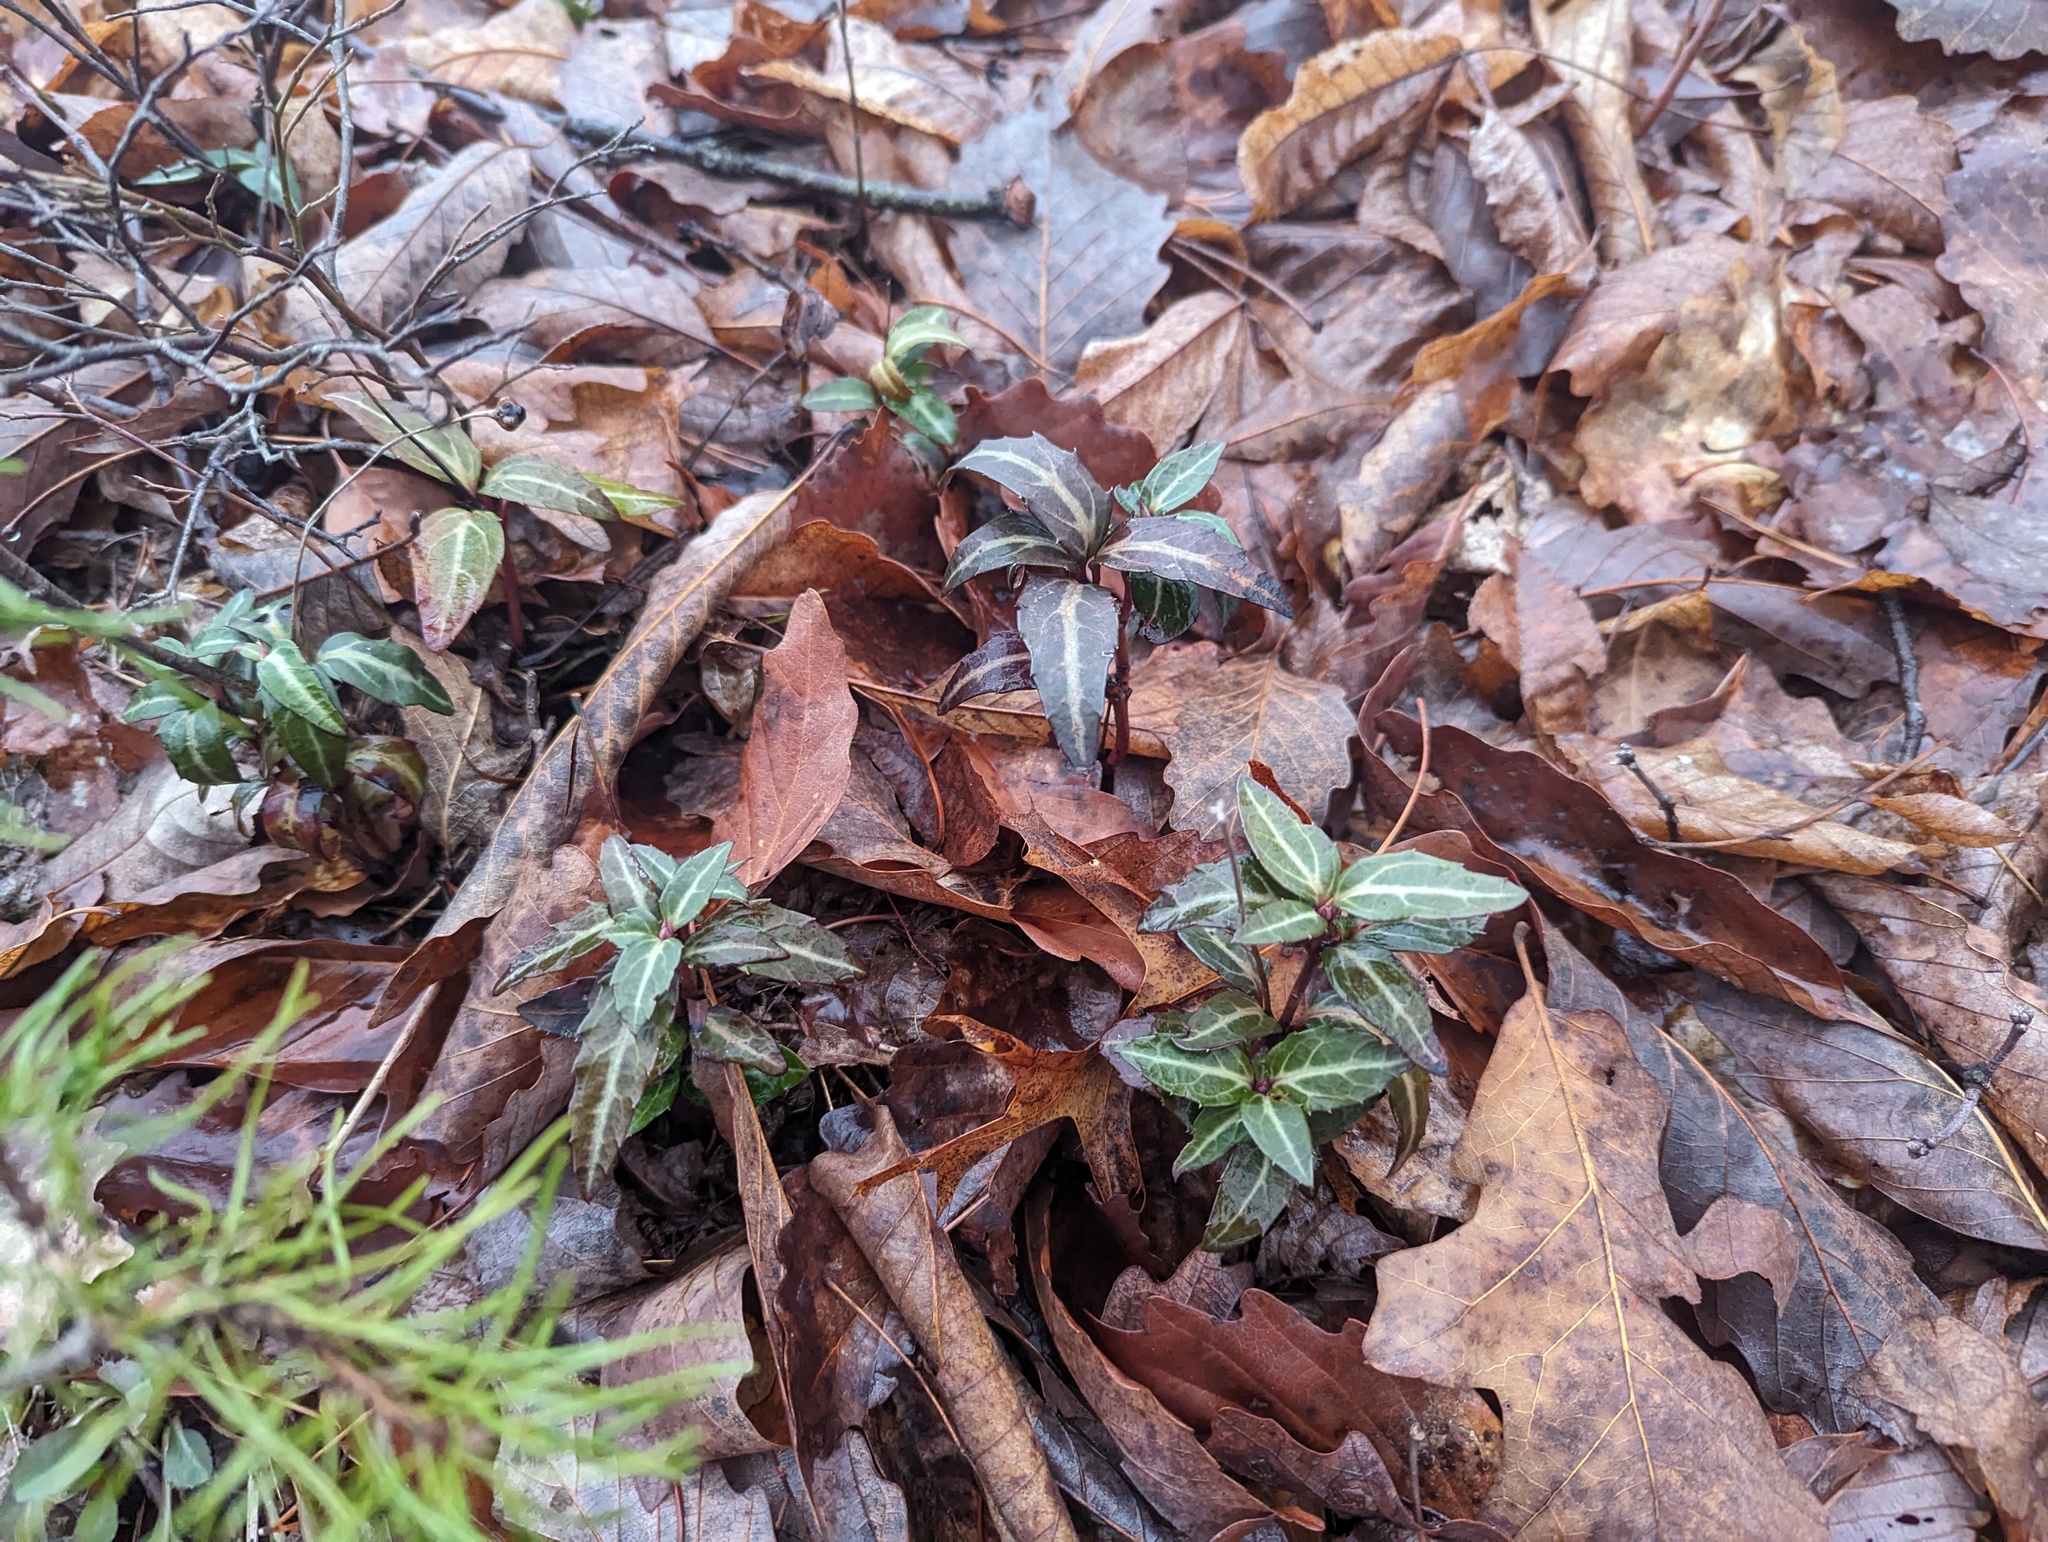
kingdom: Plantae
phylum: Tracheophyta
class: Magnoliopsida
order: Ericales
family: Ericaceae
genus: Chimaphila
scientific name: Chimaphila maculata
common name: Spotted pipsissewa
